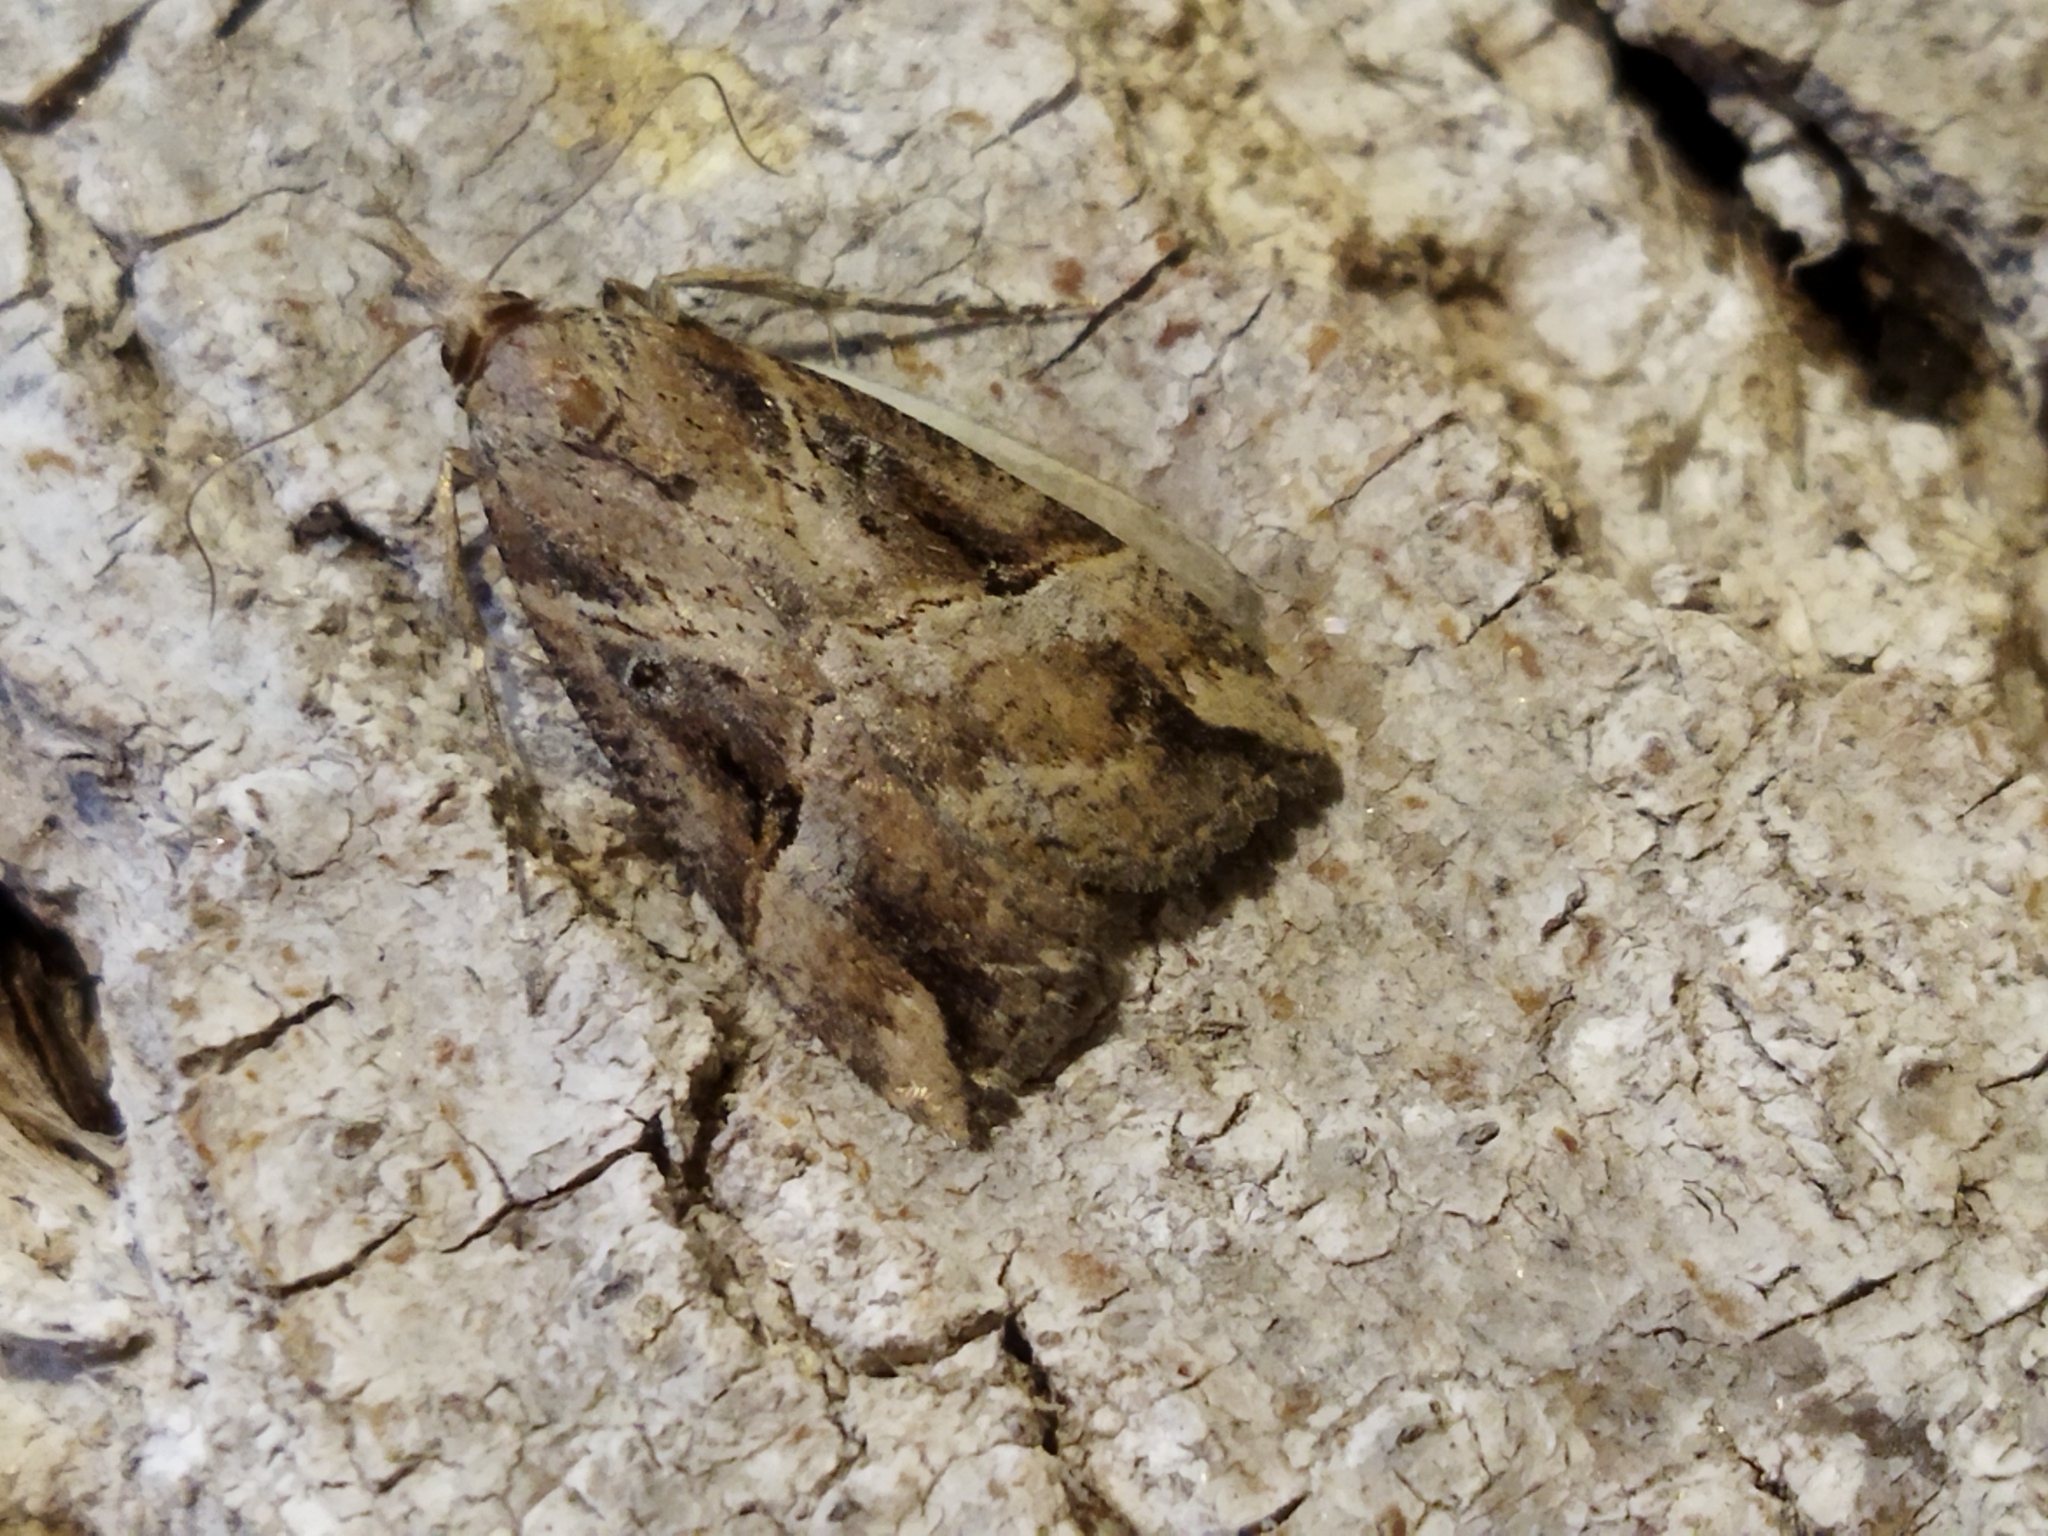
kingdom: Animalia
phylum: Arthropoda
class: Insecta
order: Lepidoptera
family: Erebidae
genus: Hypena
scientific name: Hypena rostralis
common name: Buttoned snout
